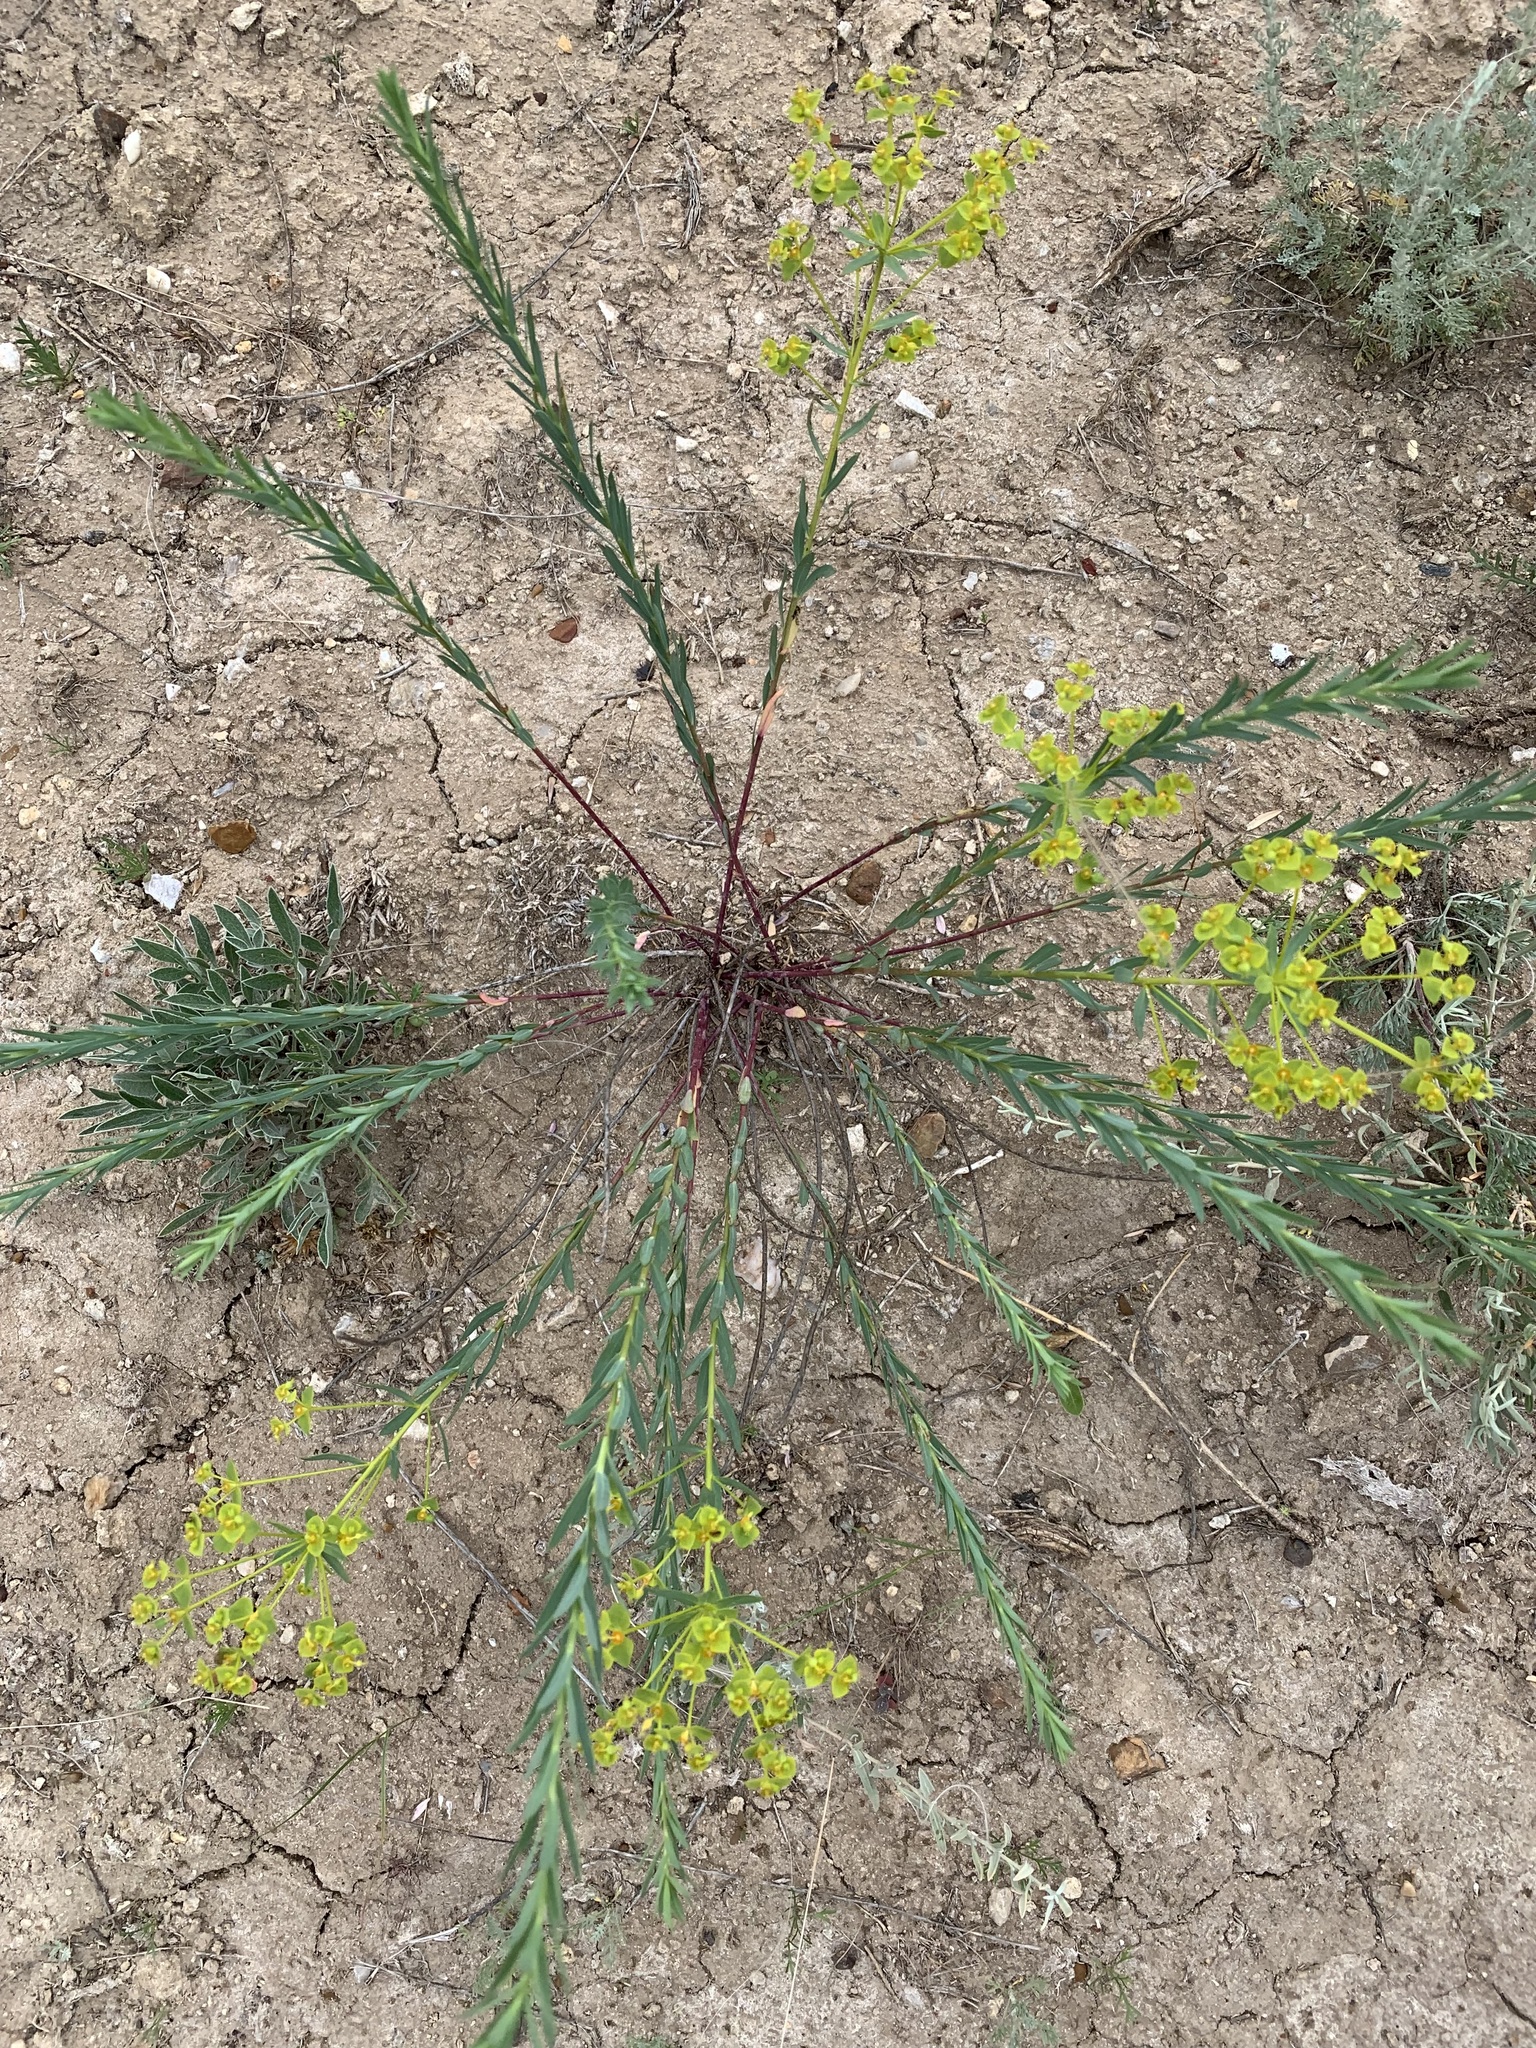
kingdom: Plantae
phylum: Tracheophyta
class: Magnoliopsida
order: Malpighiales
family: Euphorbiaceae
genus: Euphorbia
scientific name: Euphorbia seguieriana
